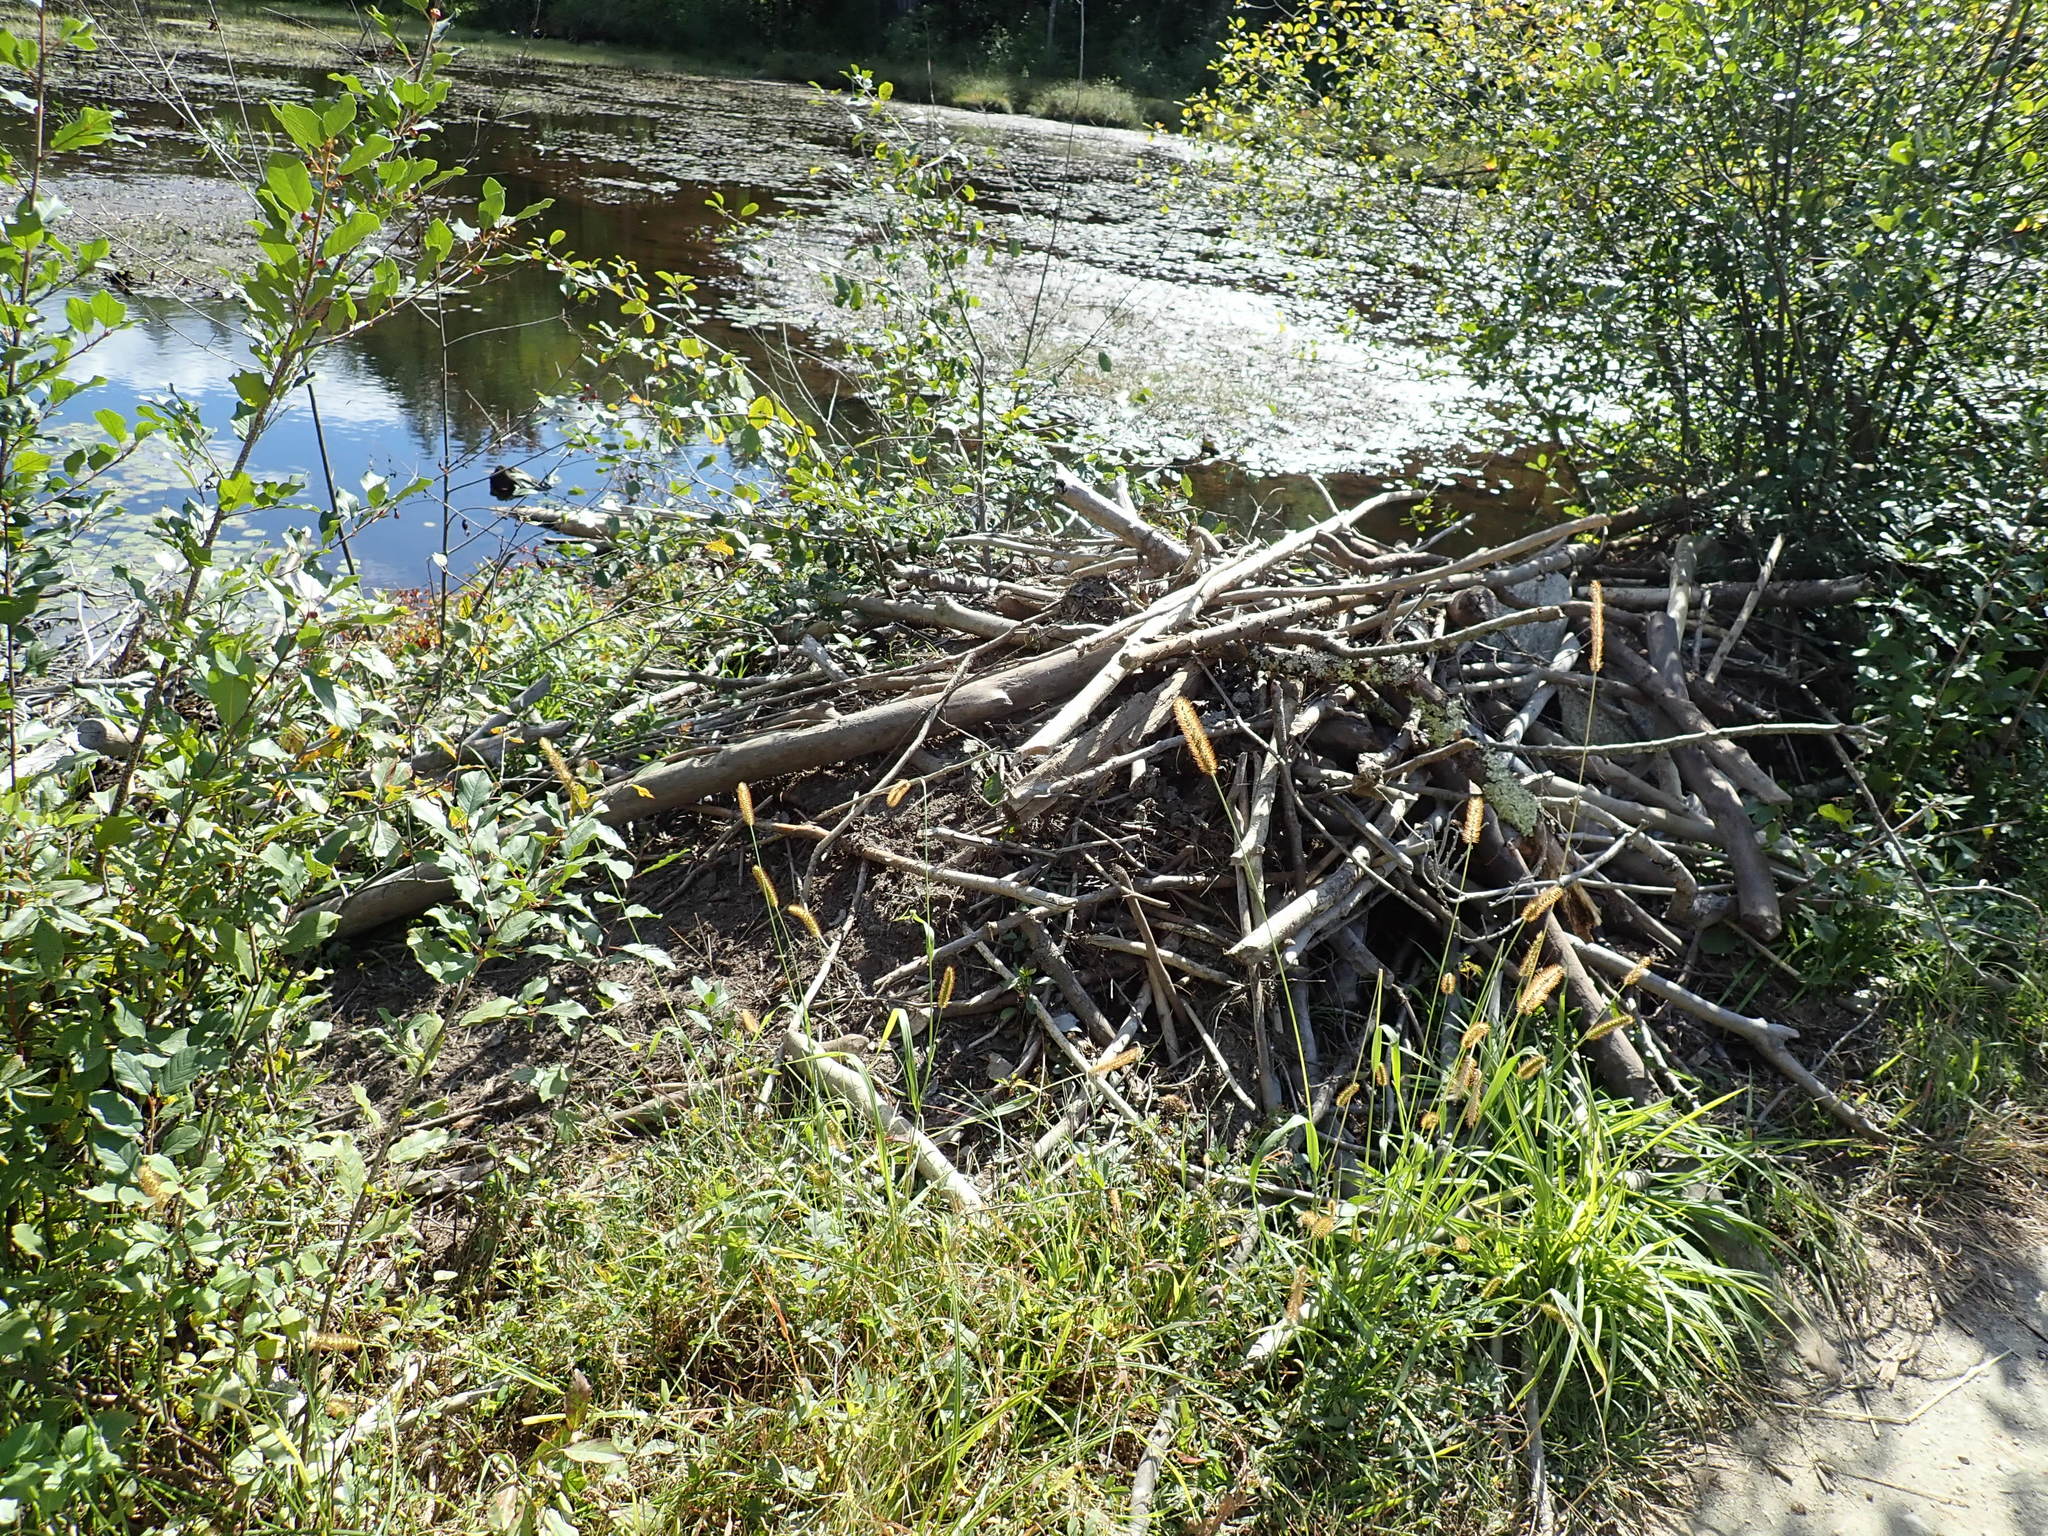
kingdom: Animalia
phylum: Chordata
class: Mammalia
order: Rodentia
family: Castoridae
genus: Castor
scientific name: Castor canadensis
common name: American beaver
